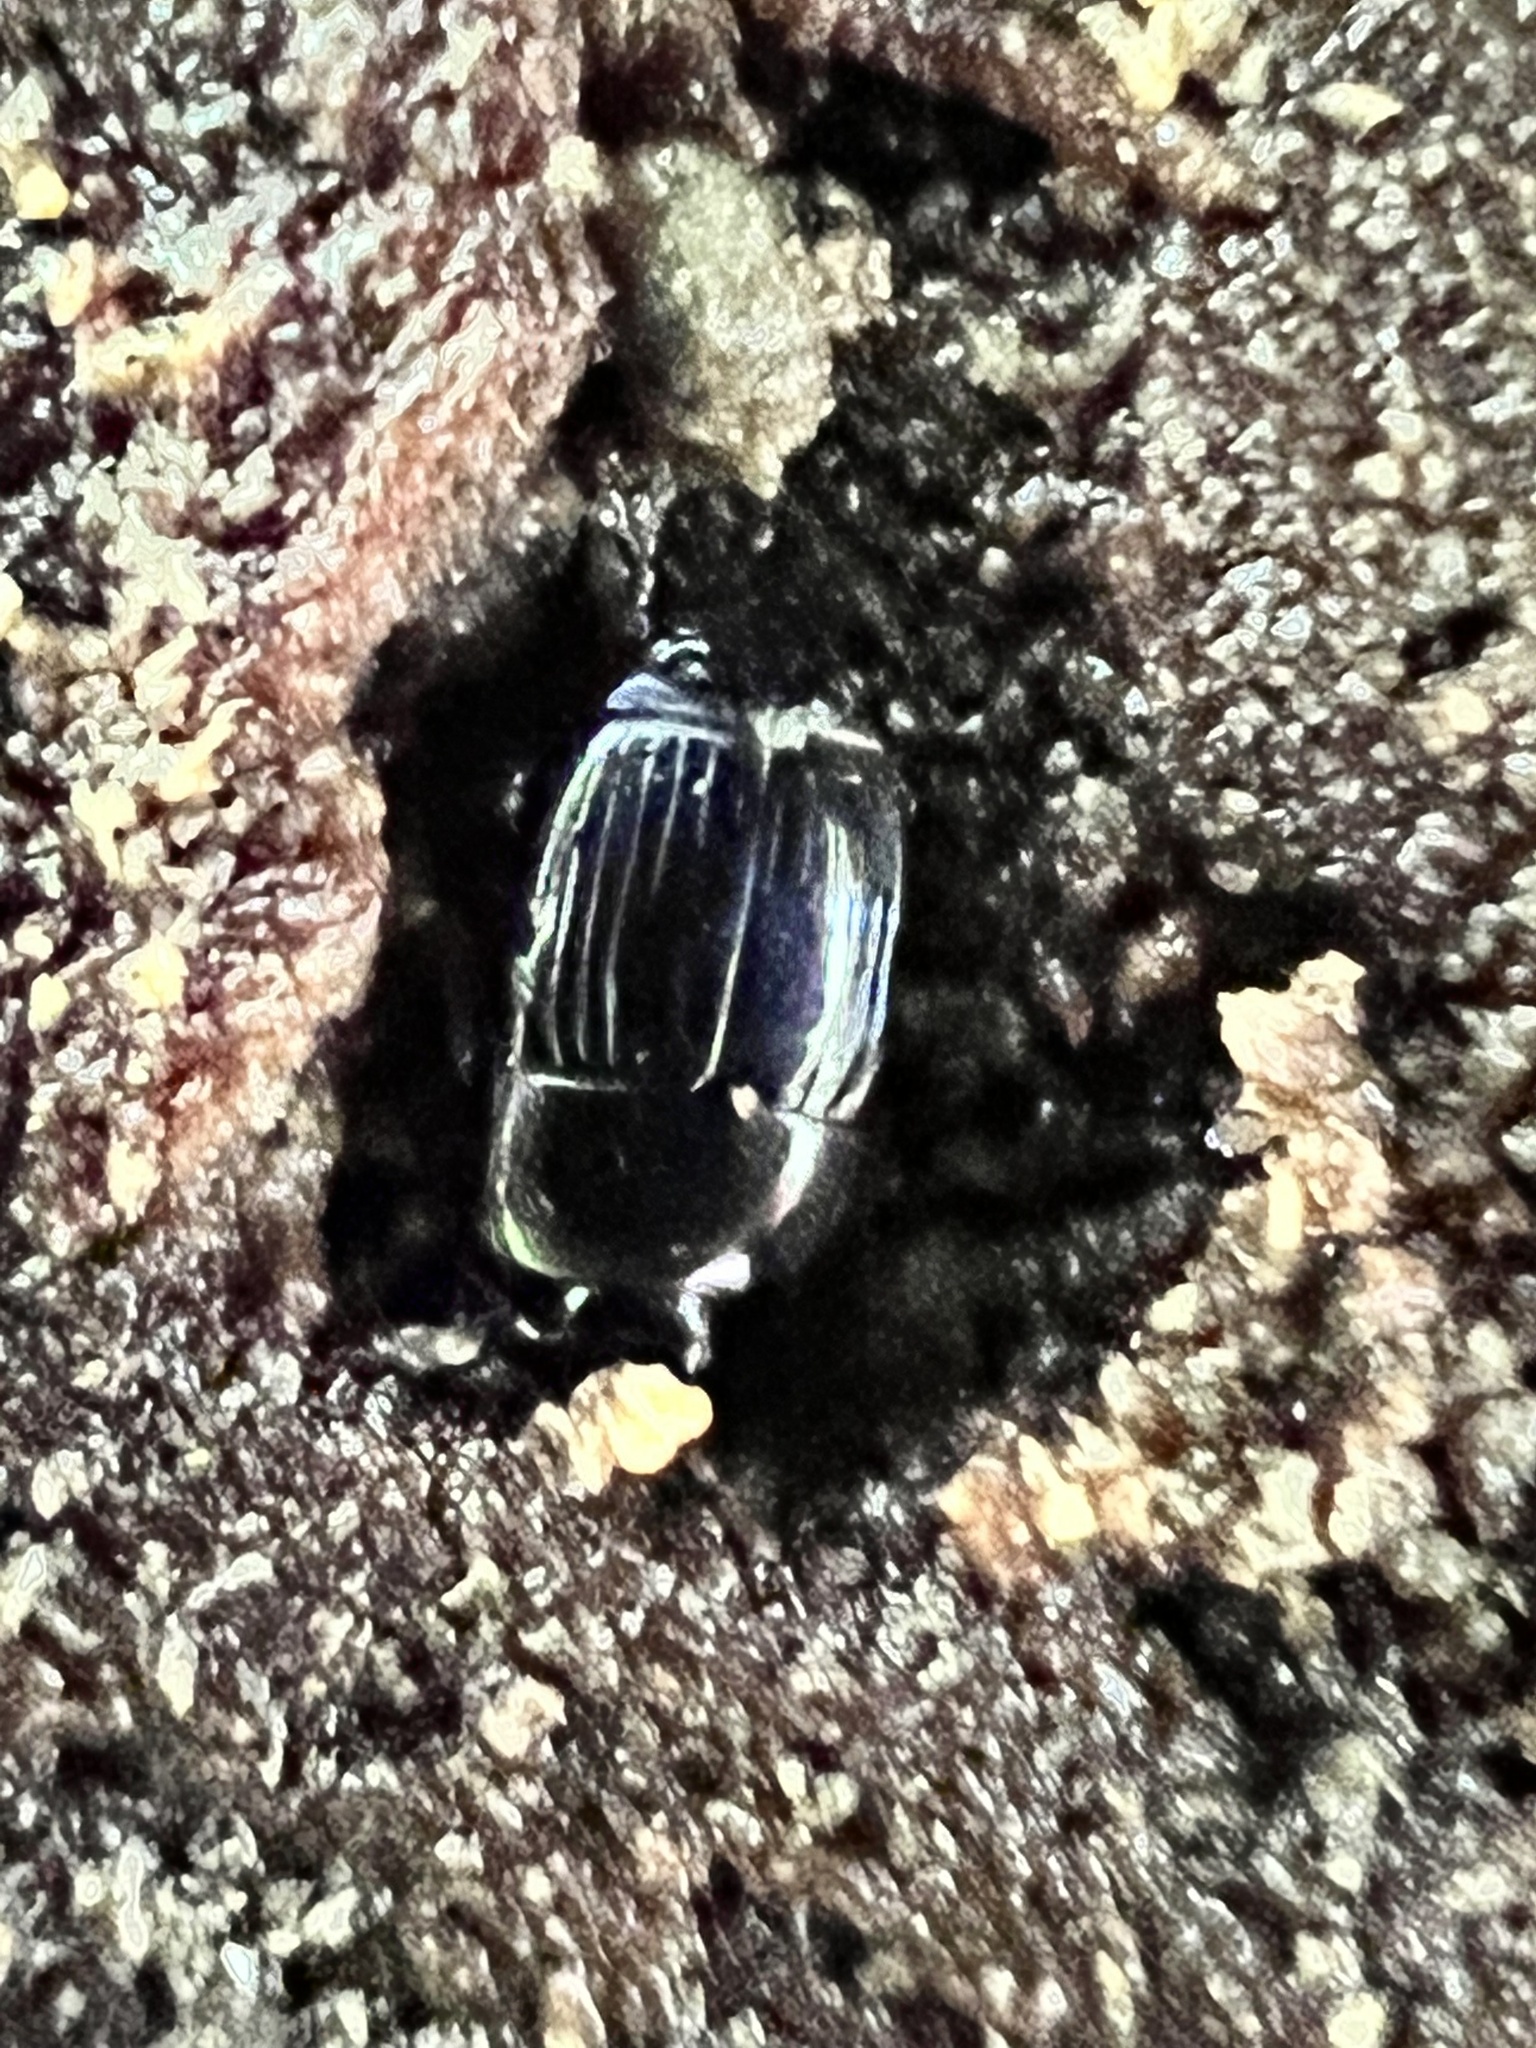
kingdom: Animalia
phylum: Arthropoda
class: Insecta
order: Coleoptera
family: Histeridae
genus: Platysoma
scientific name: Platysoma leconti
